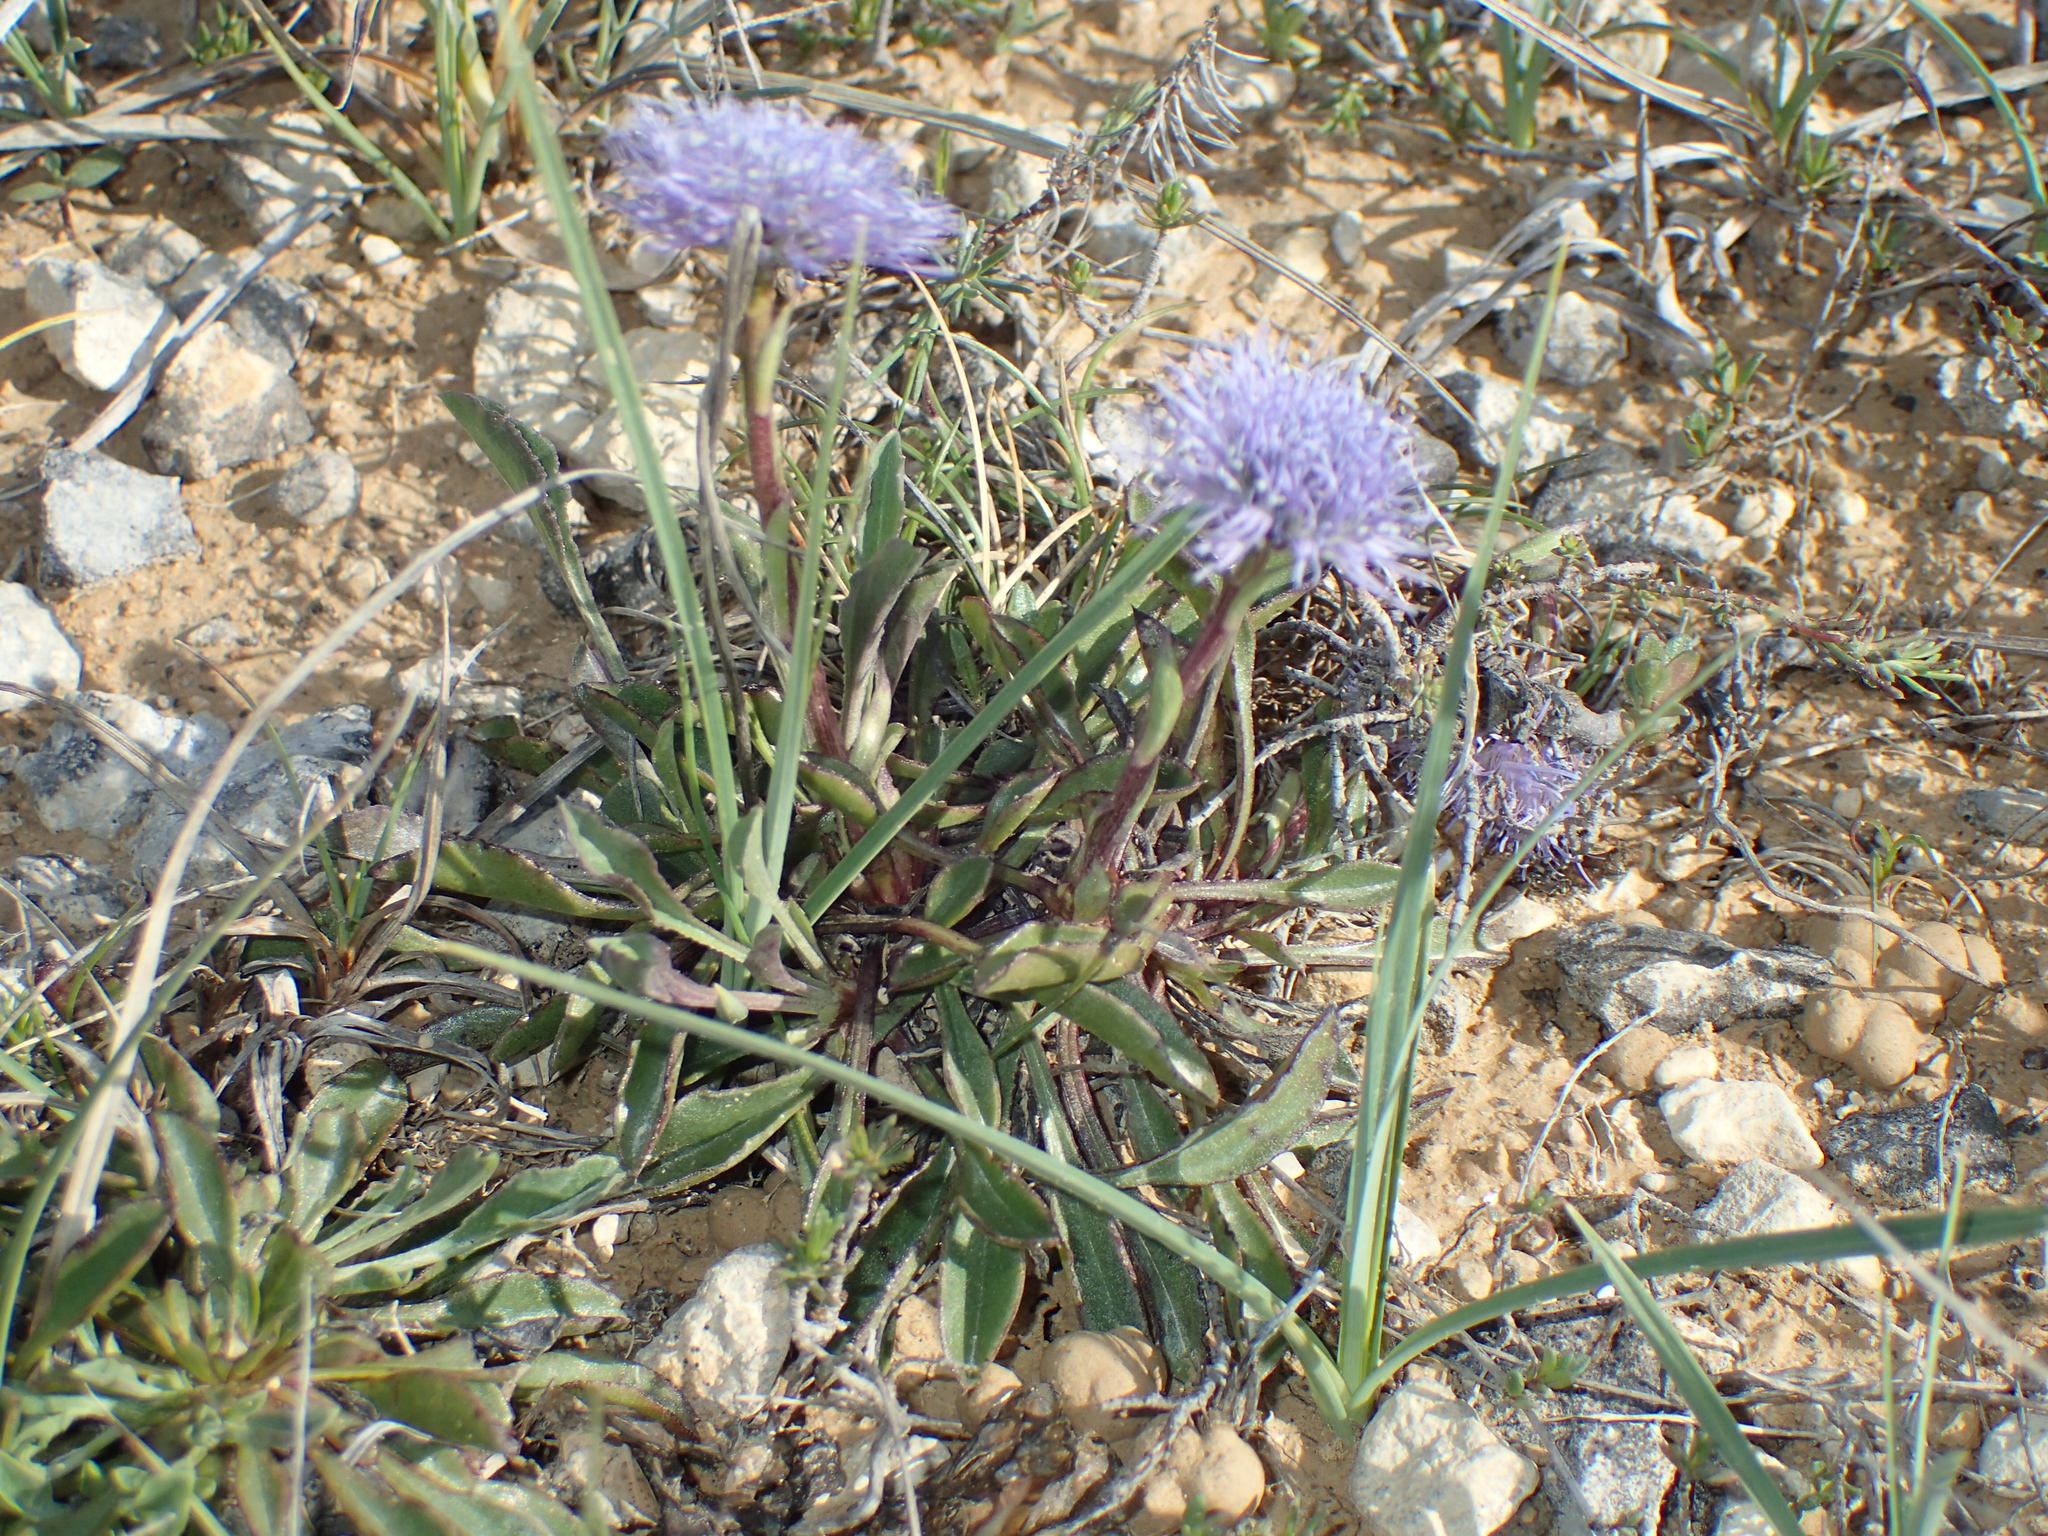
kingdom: Plantae
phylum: Tracheophyta
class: Magnoliopsida
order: Lamiales
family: Plantaginaceae
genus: Globularia
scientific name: Globularia vulgaris
